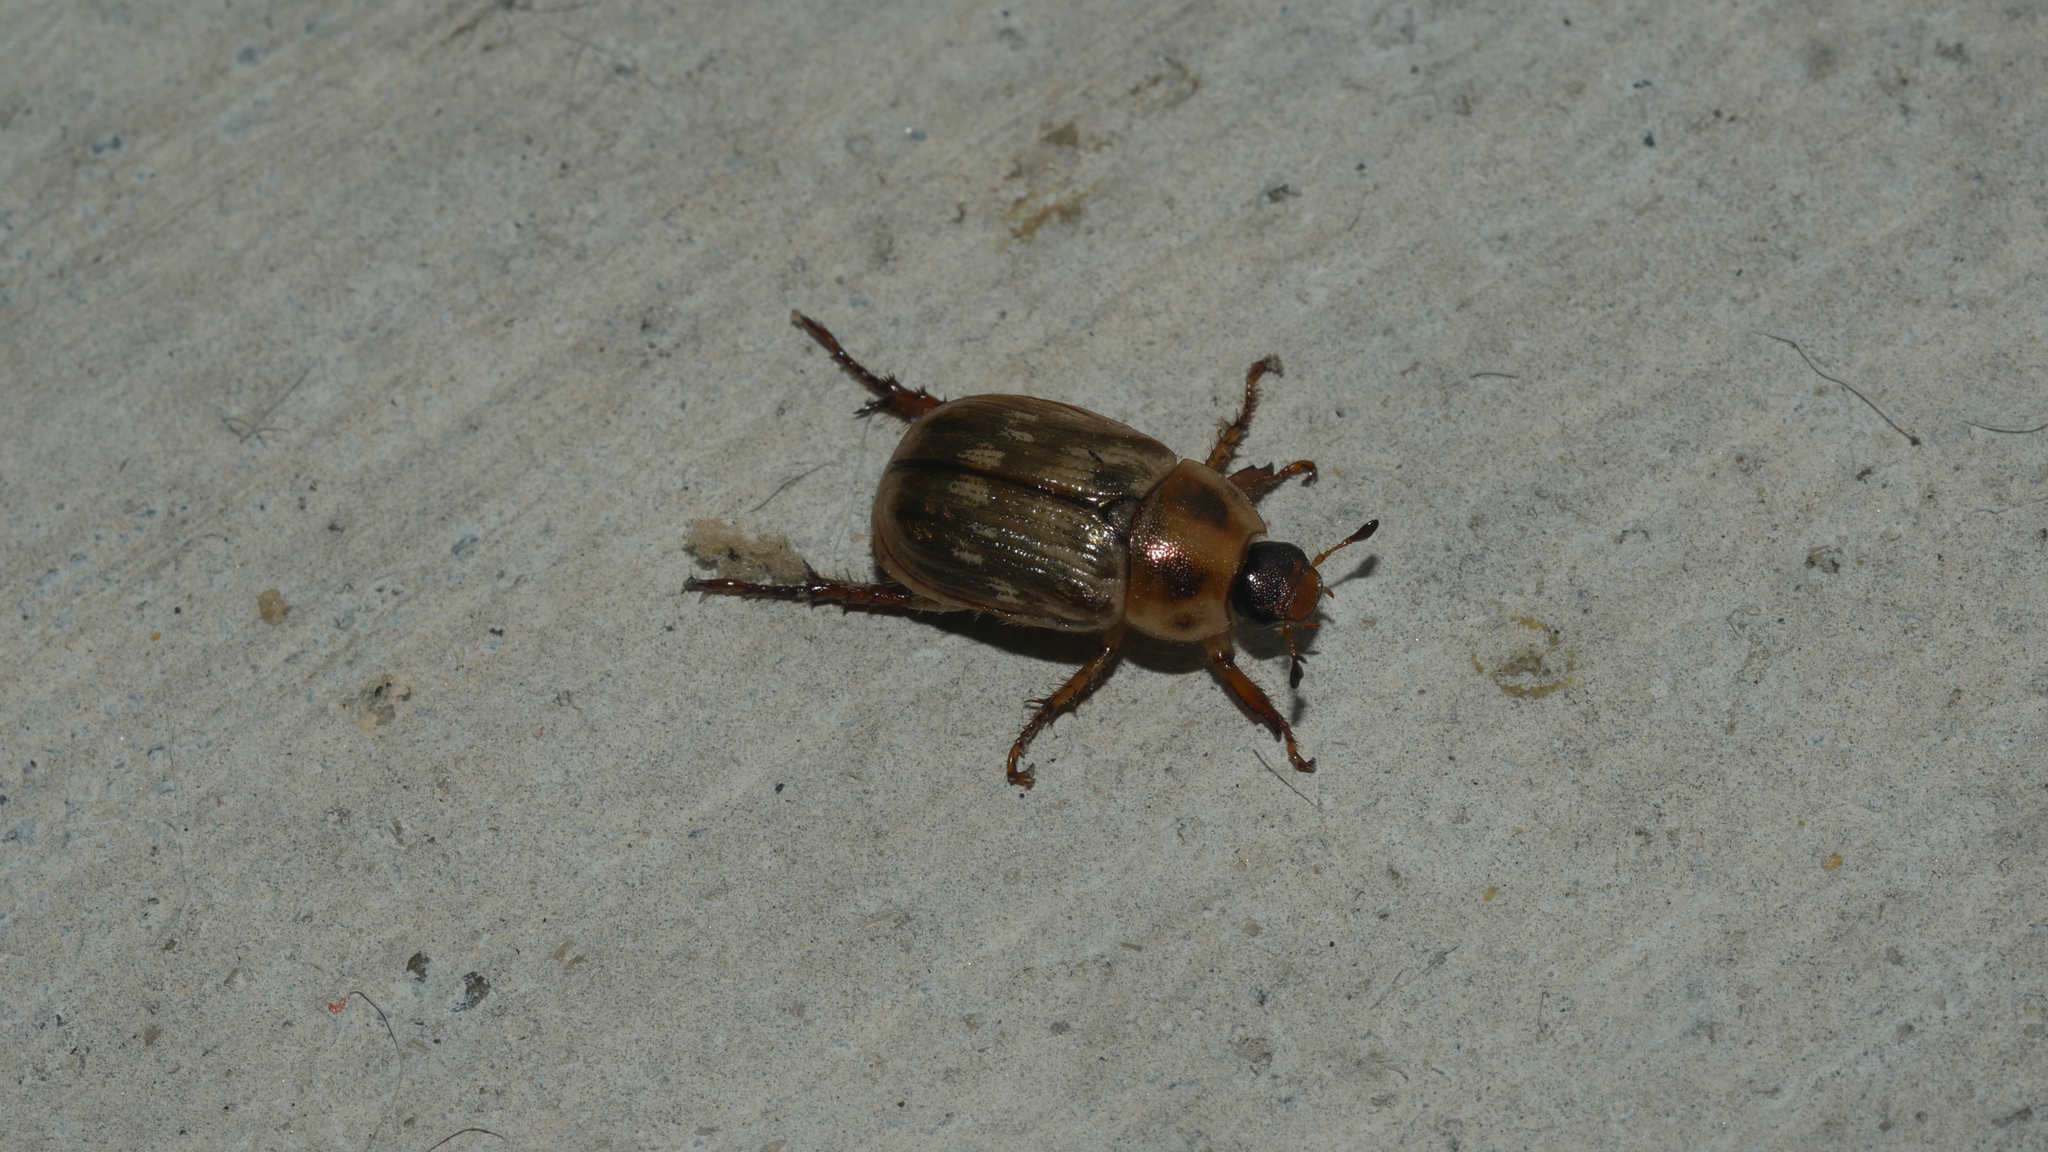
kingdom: Animalia
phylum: Arthropoda
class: Insecta
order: Coleoptera
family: Scarabaeidae
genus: Exomala
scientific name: Exomala orientalis
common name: Oriental beetle
